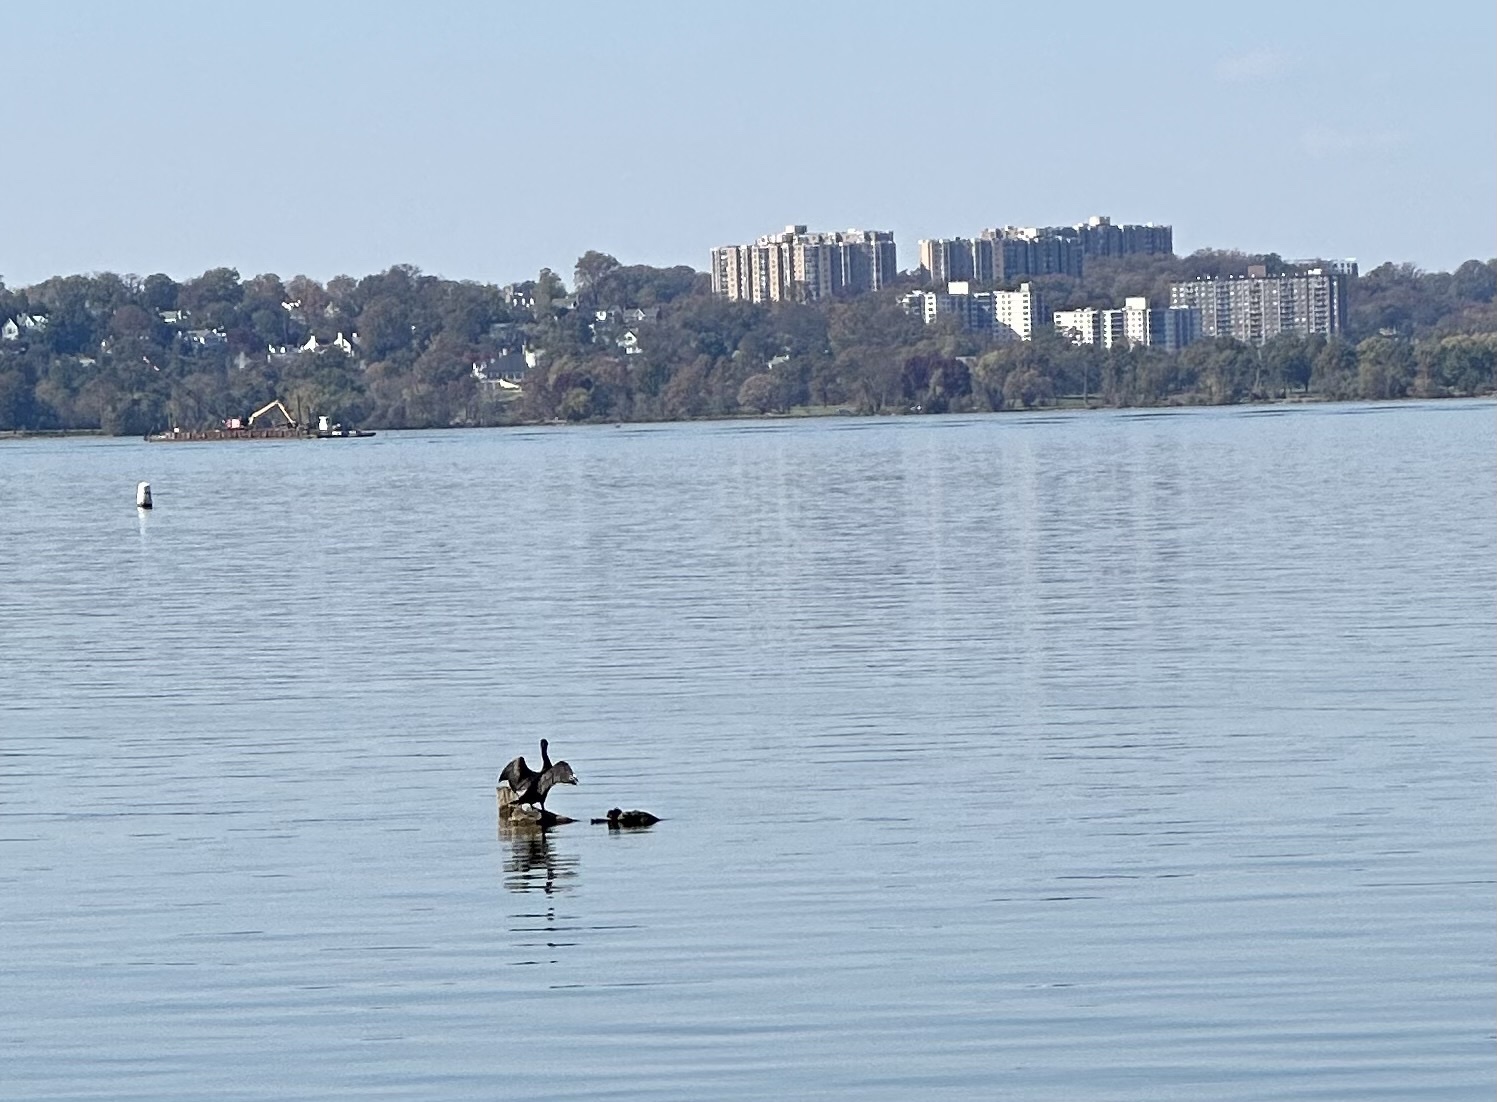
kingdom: Animalia
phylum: Chordata
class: Aves
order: Suliformes
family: Phalacrocoracidae
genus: Phalacrocorax
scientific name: Phalacrocorax auritus
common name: Double-crested cormorant
